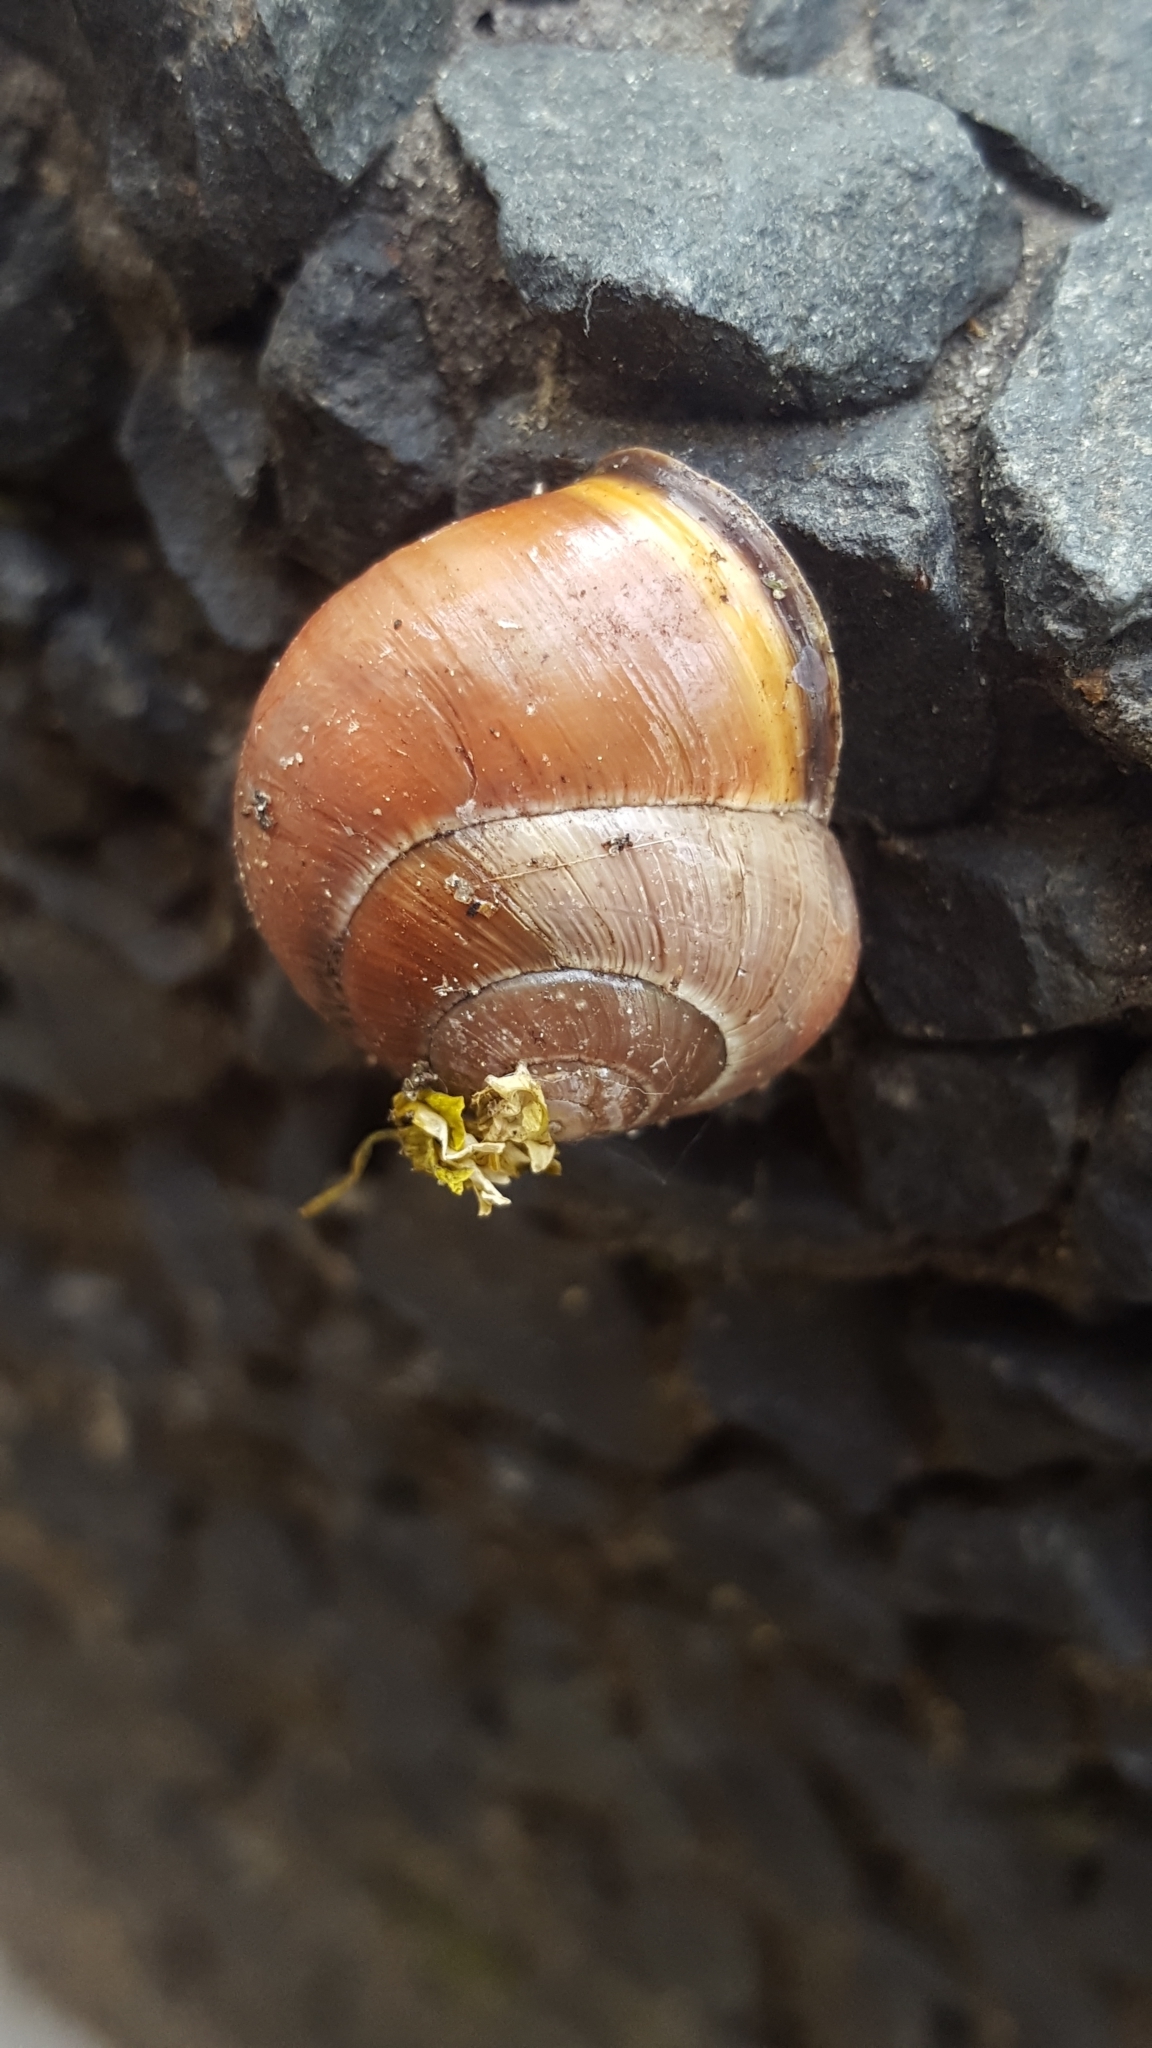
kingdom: Animalia
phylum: Mollusca
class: Gastropoda
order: Stylommatophora
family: Helicidae
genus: Cepaea
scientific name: Cepaea nemoralis
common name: Grovesnail
